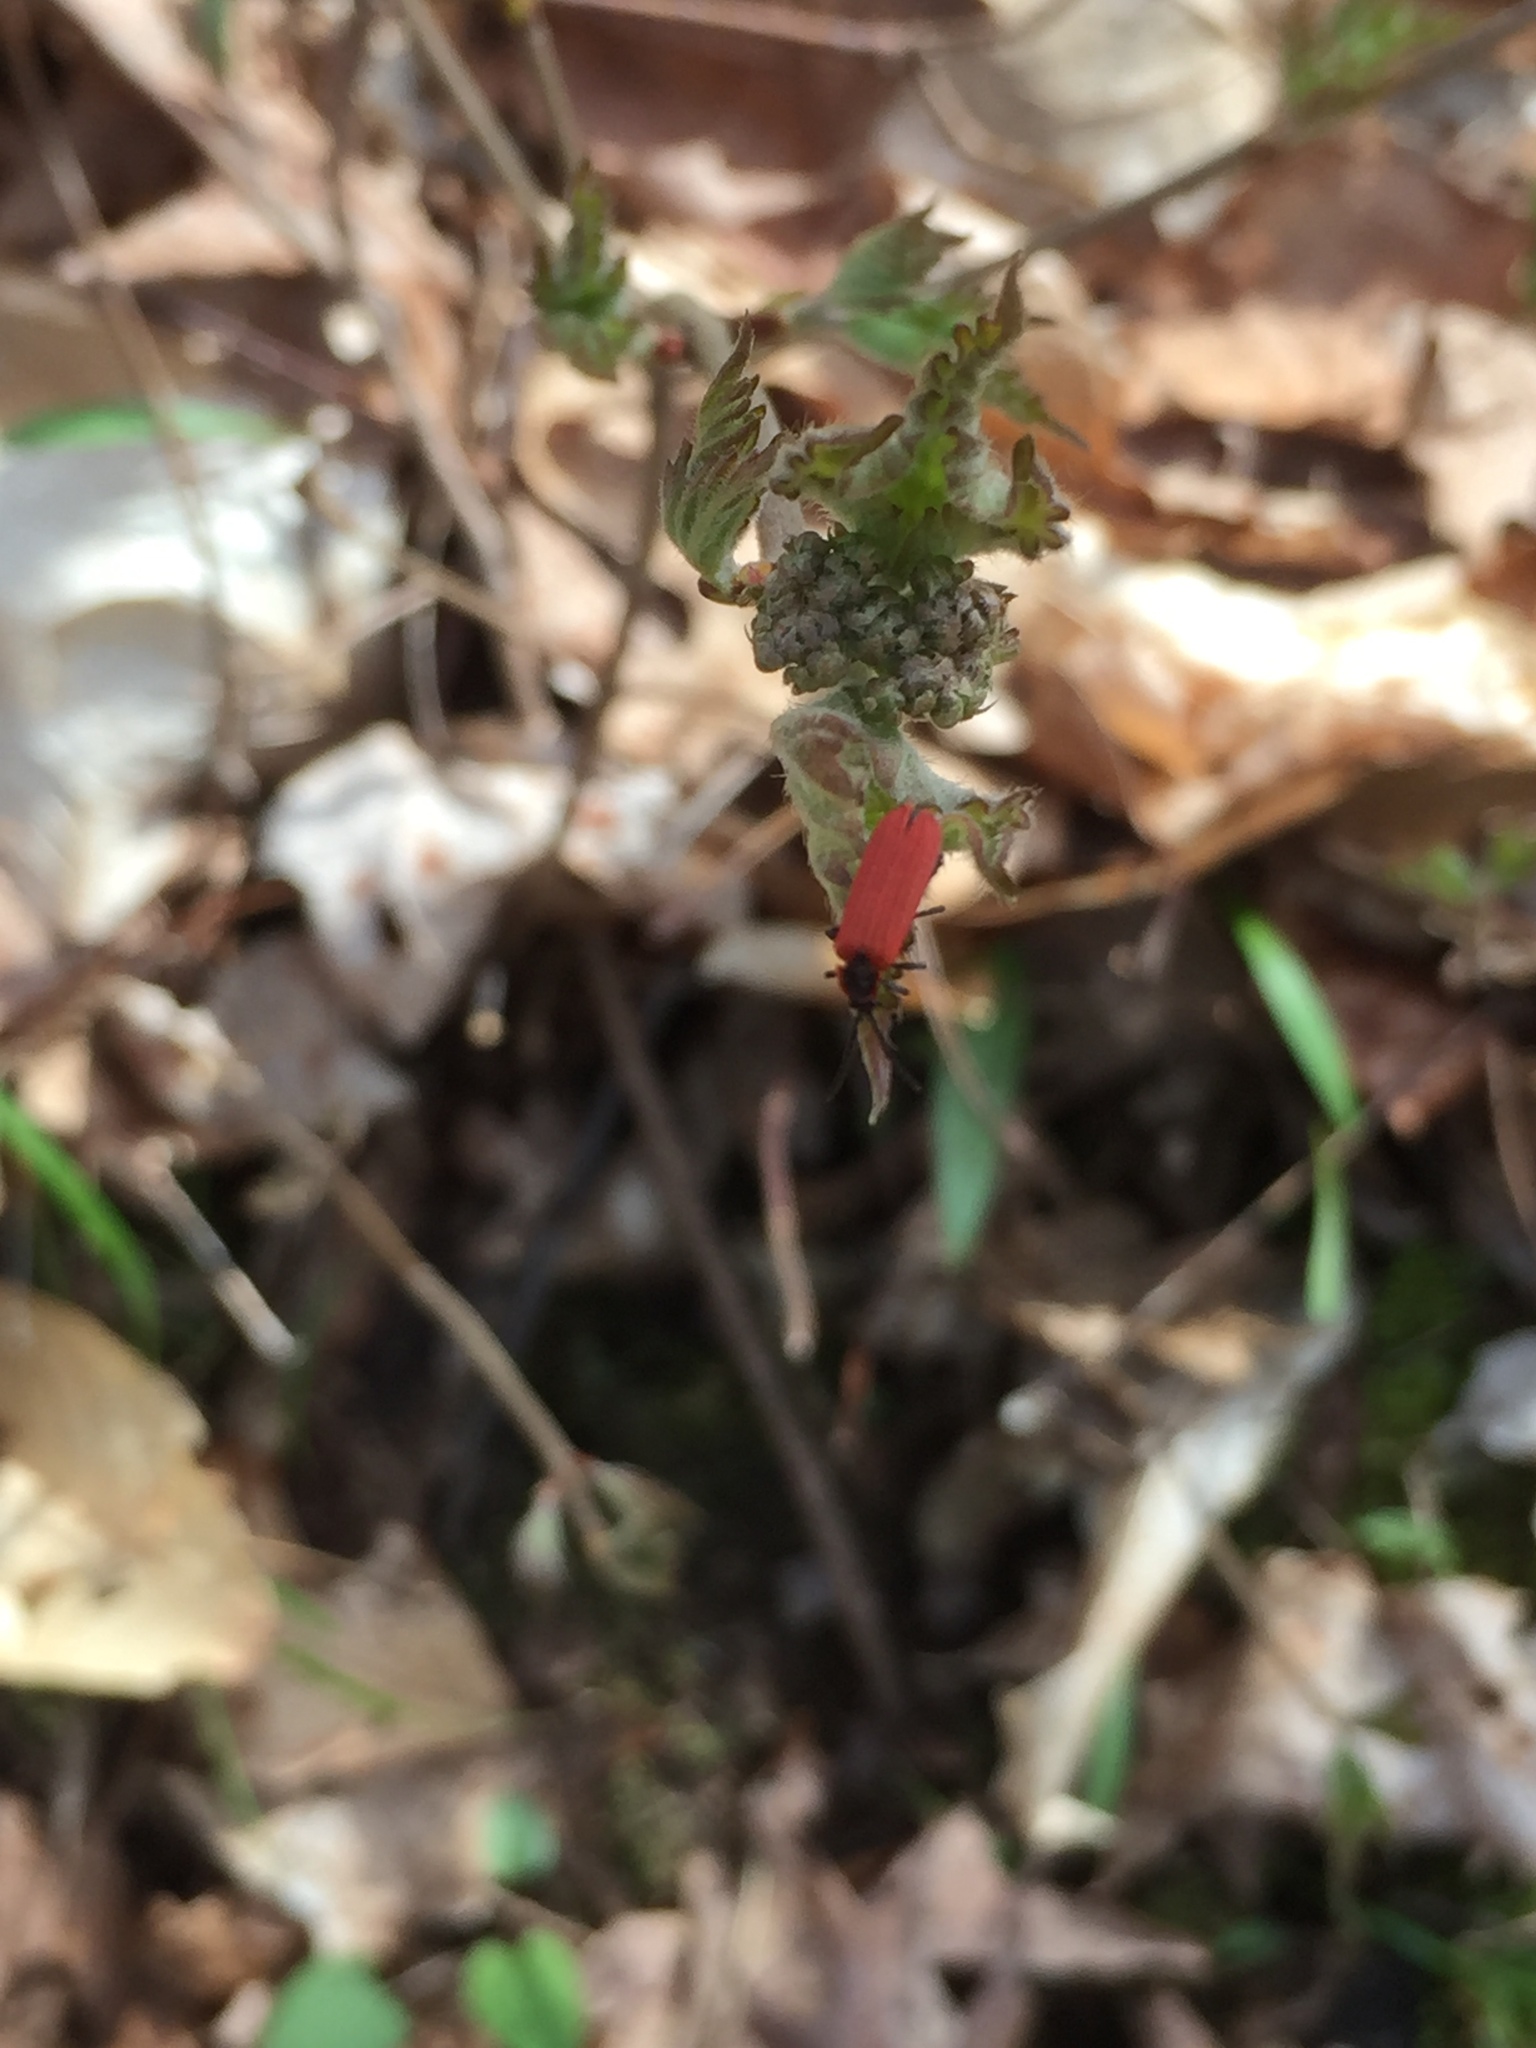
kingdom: Animalia
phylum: Arthropoda
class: Insecta
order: Coleoptera
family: Lycidae
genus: Dictyoptera
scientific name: Dictyoptera aurora
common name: Golden net-winged beetle
